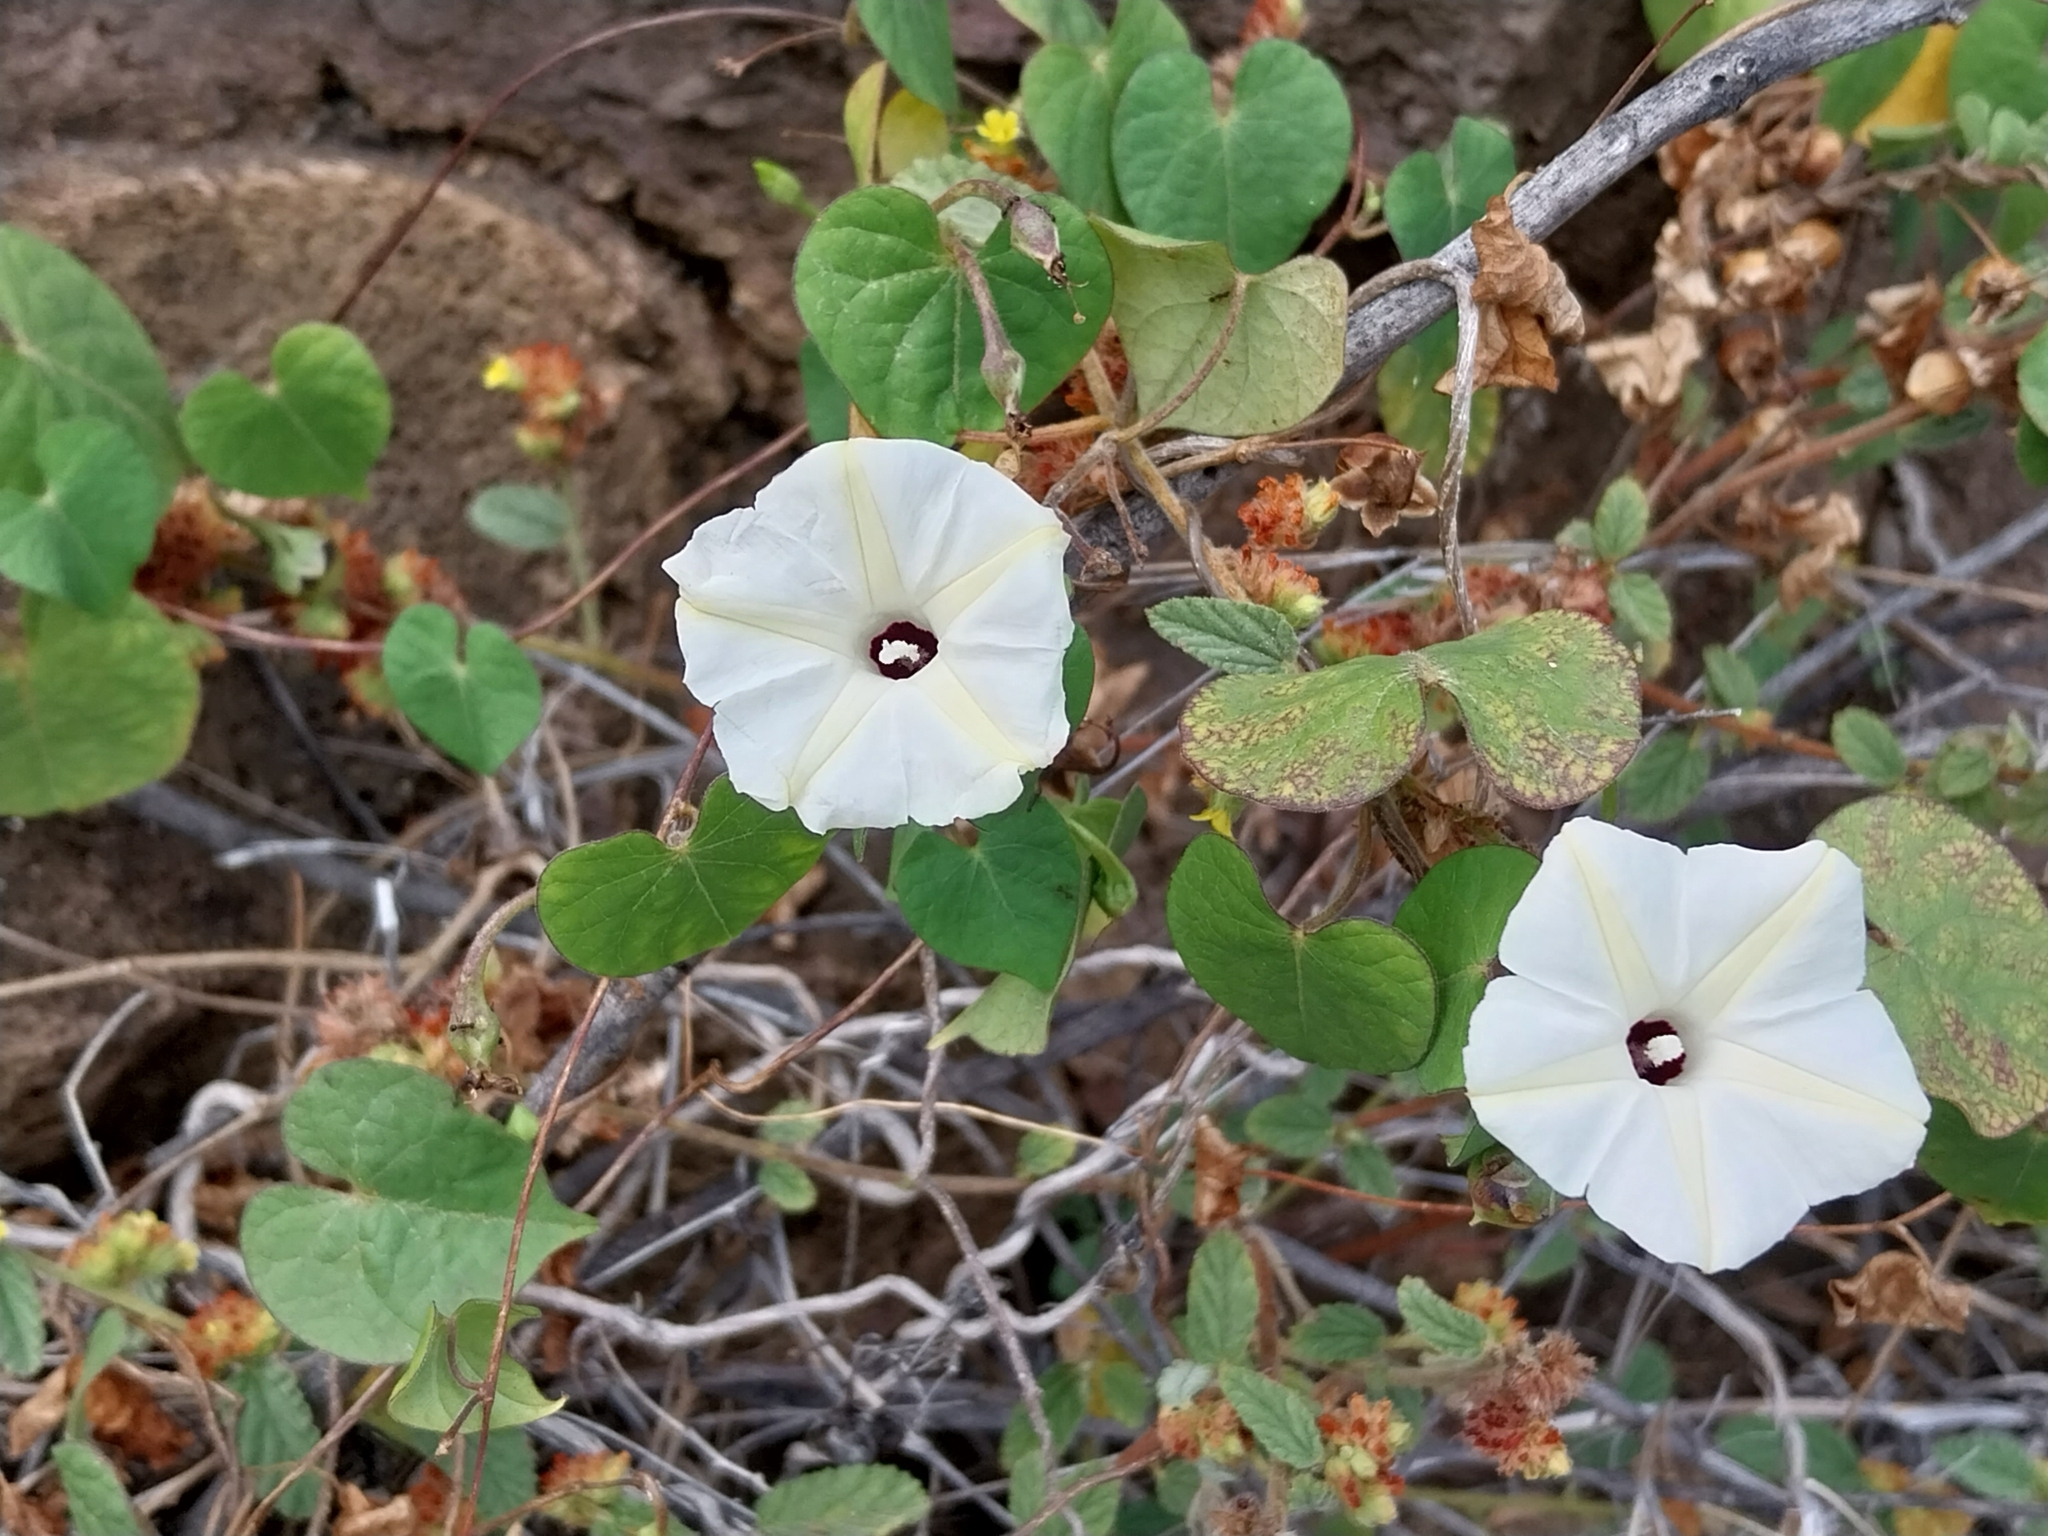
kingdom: Plantae
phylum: Tracheophyta
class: Magnoliopsida
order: Solanales
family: Convolvulaceae
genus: Ipomoea
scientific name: Ipomoea obscura
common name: Obscure morning-glory
